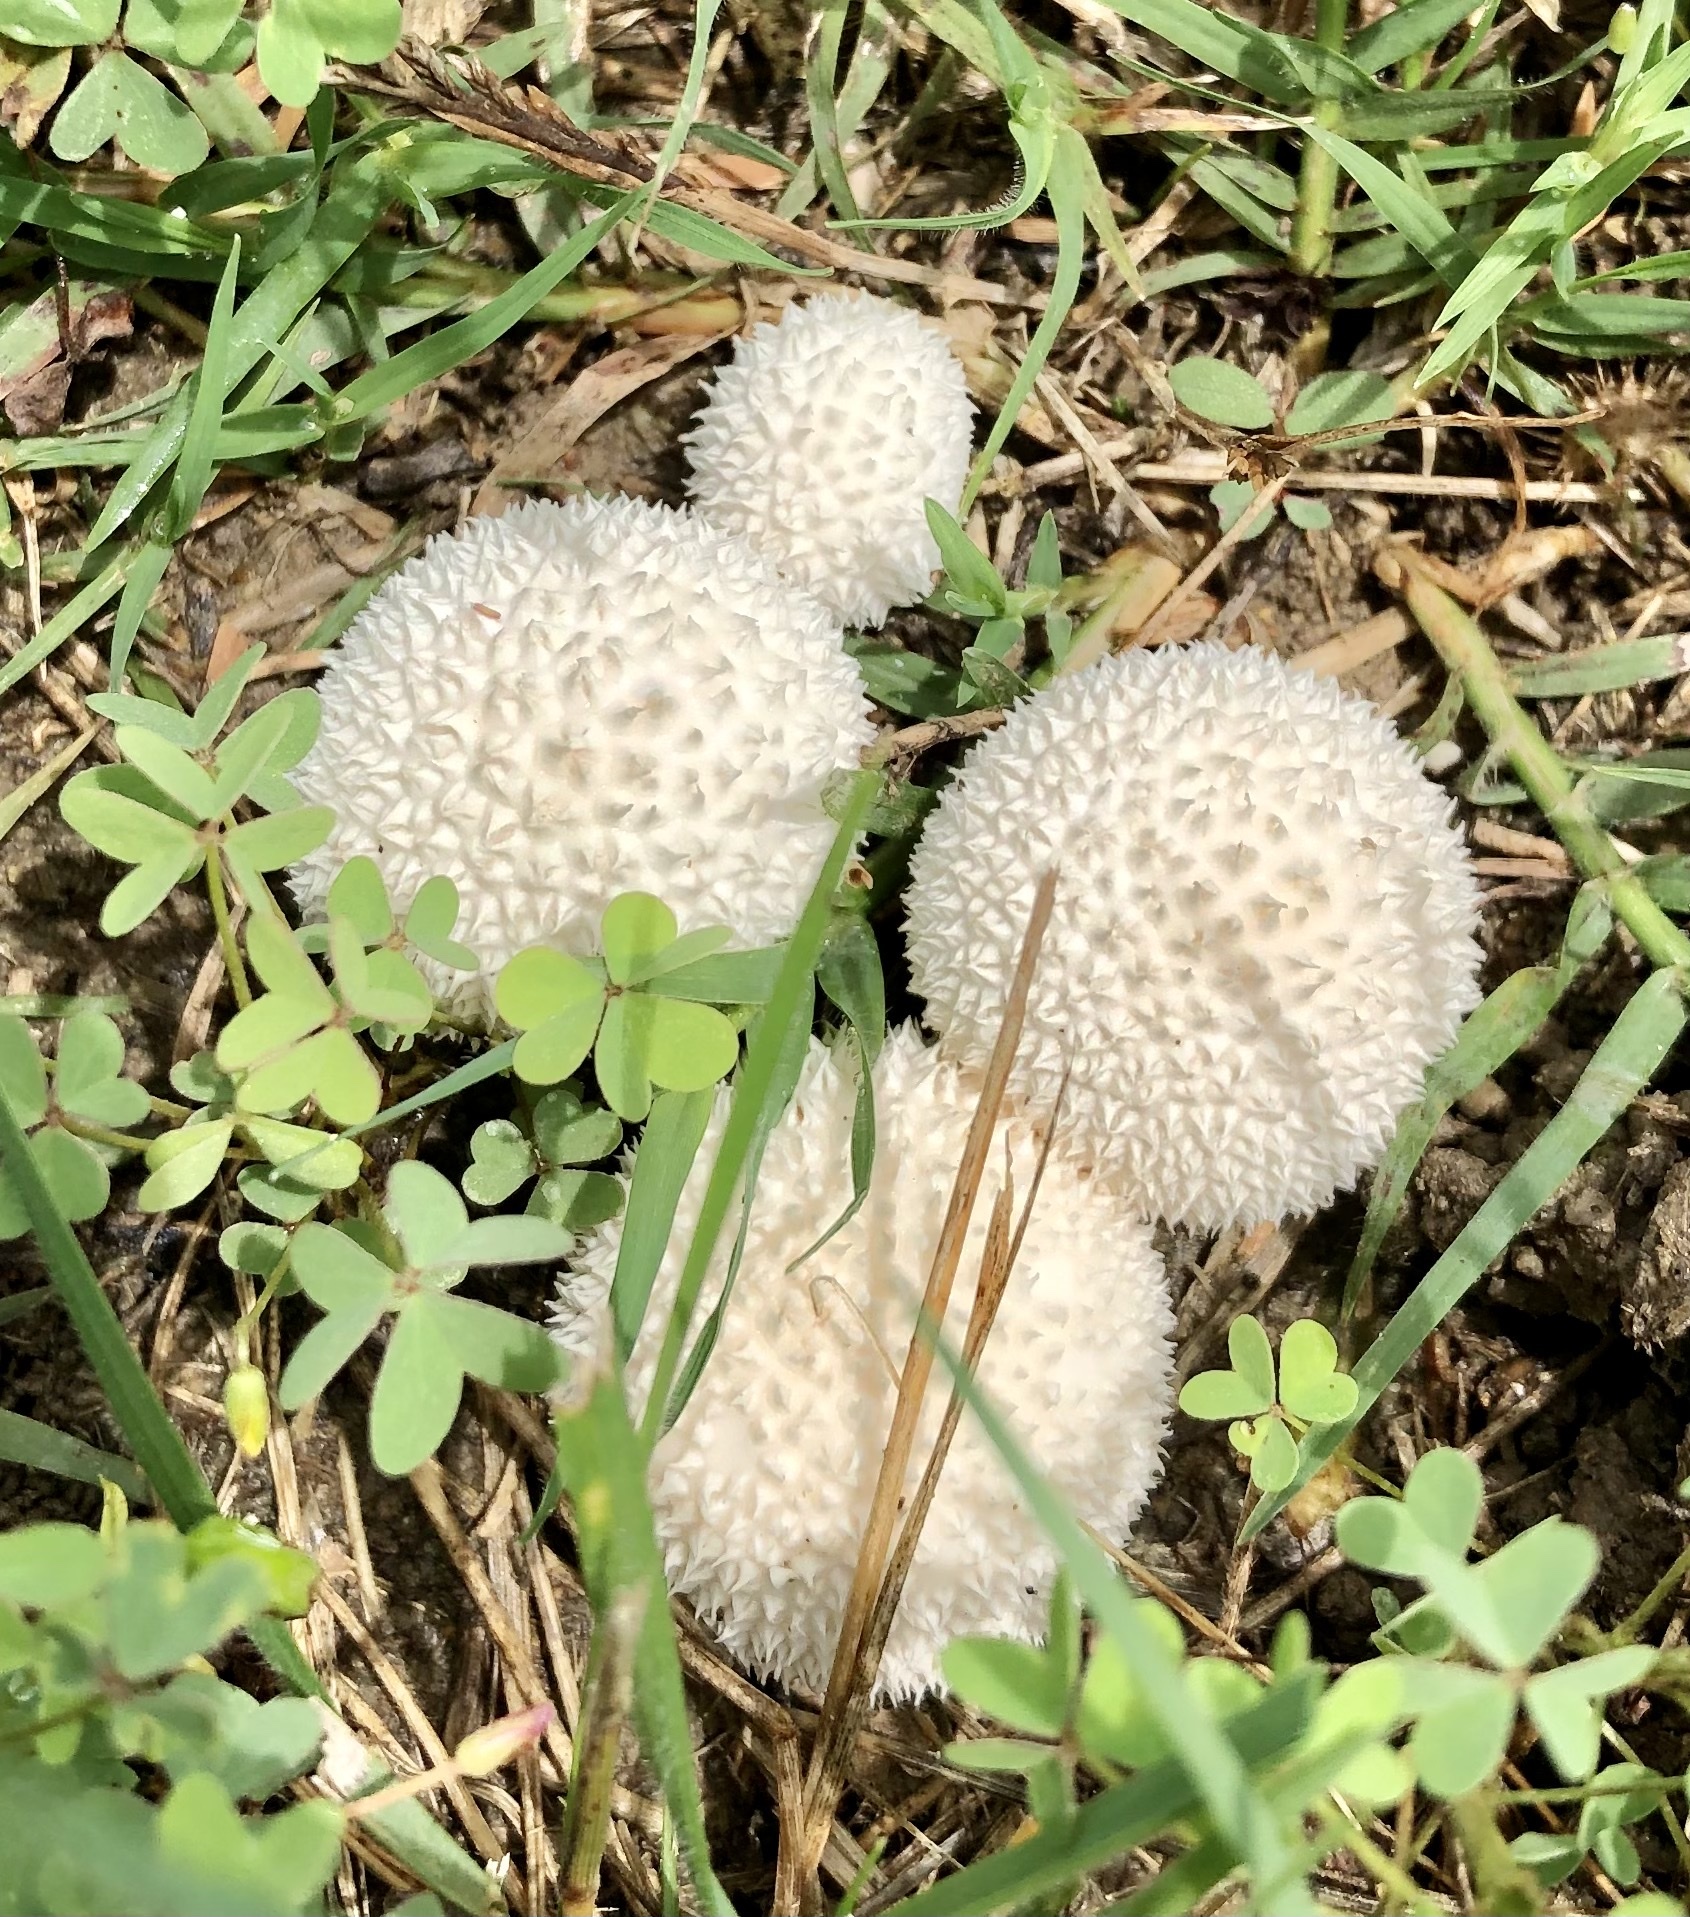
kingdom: Fungi
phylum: Basidiomycota
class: Agaricomycetes
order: Agaricales
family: Agaricaceae
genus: Lycoperdon
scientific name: Lycoperdon marginatum
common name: Peeling puffball
